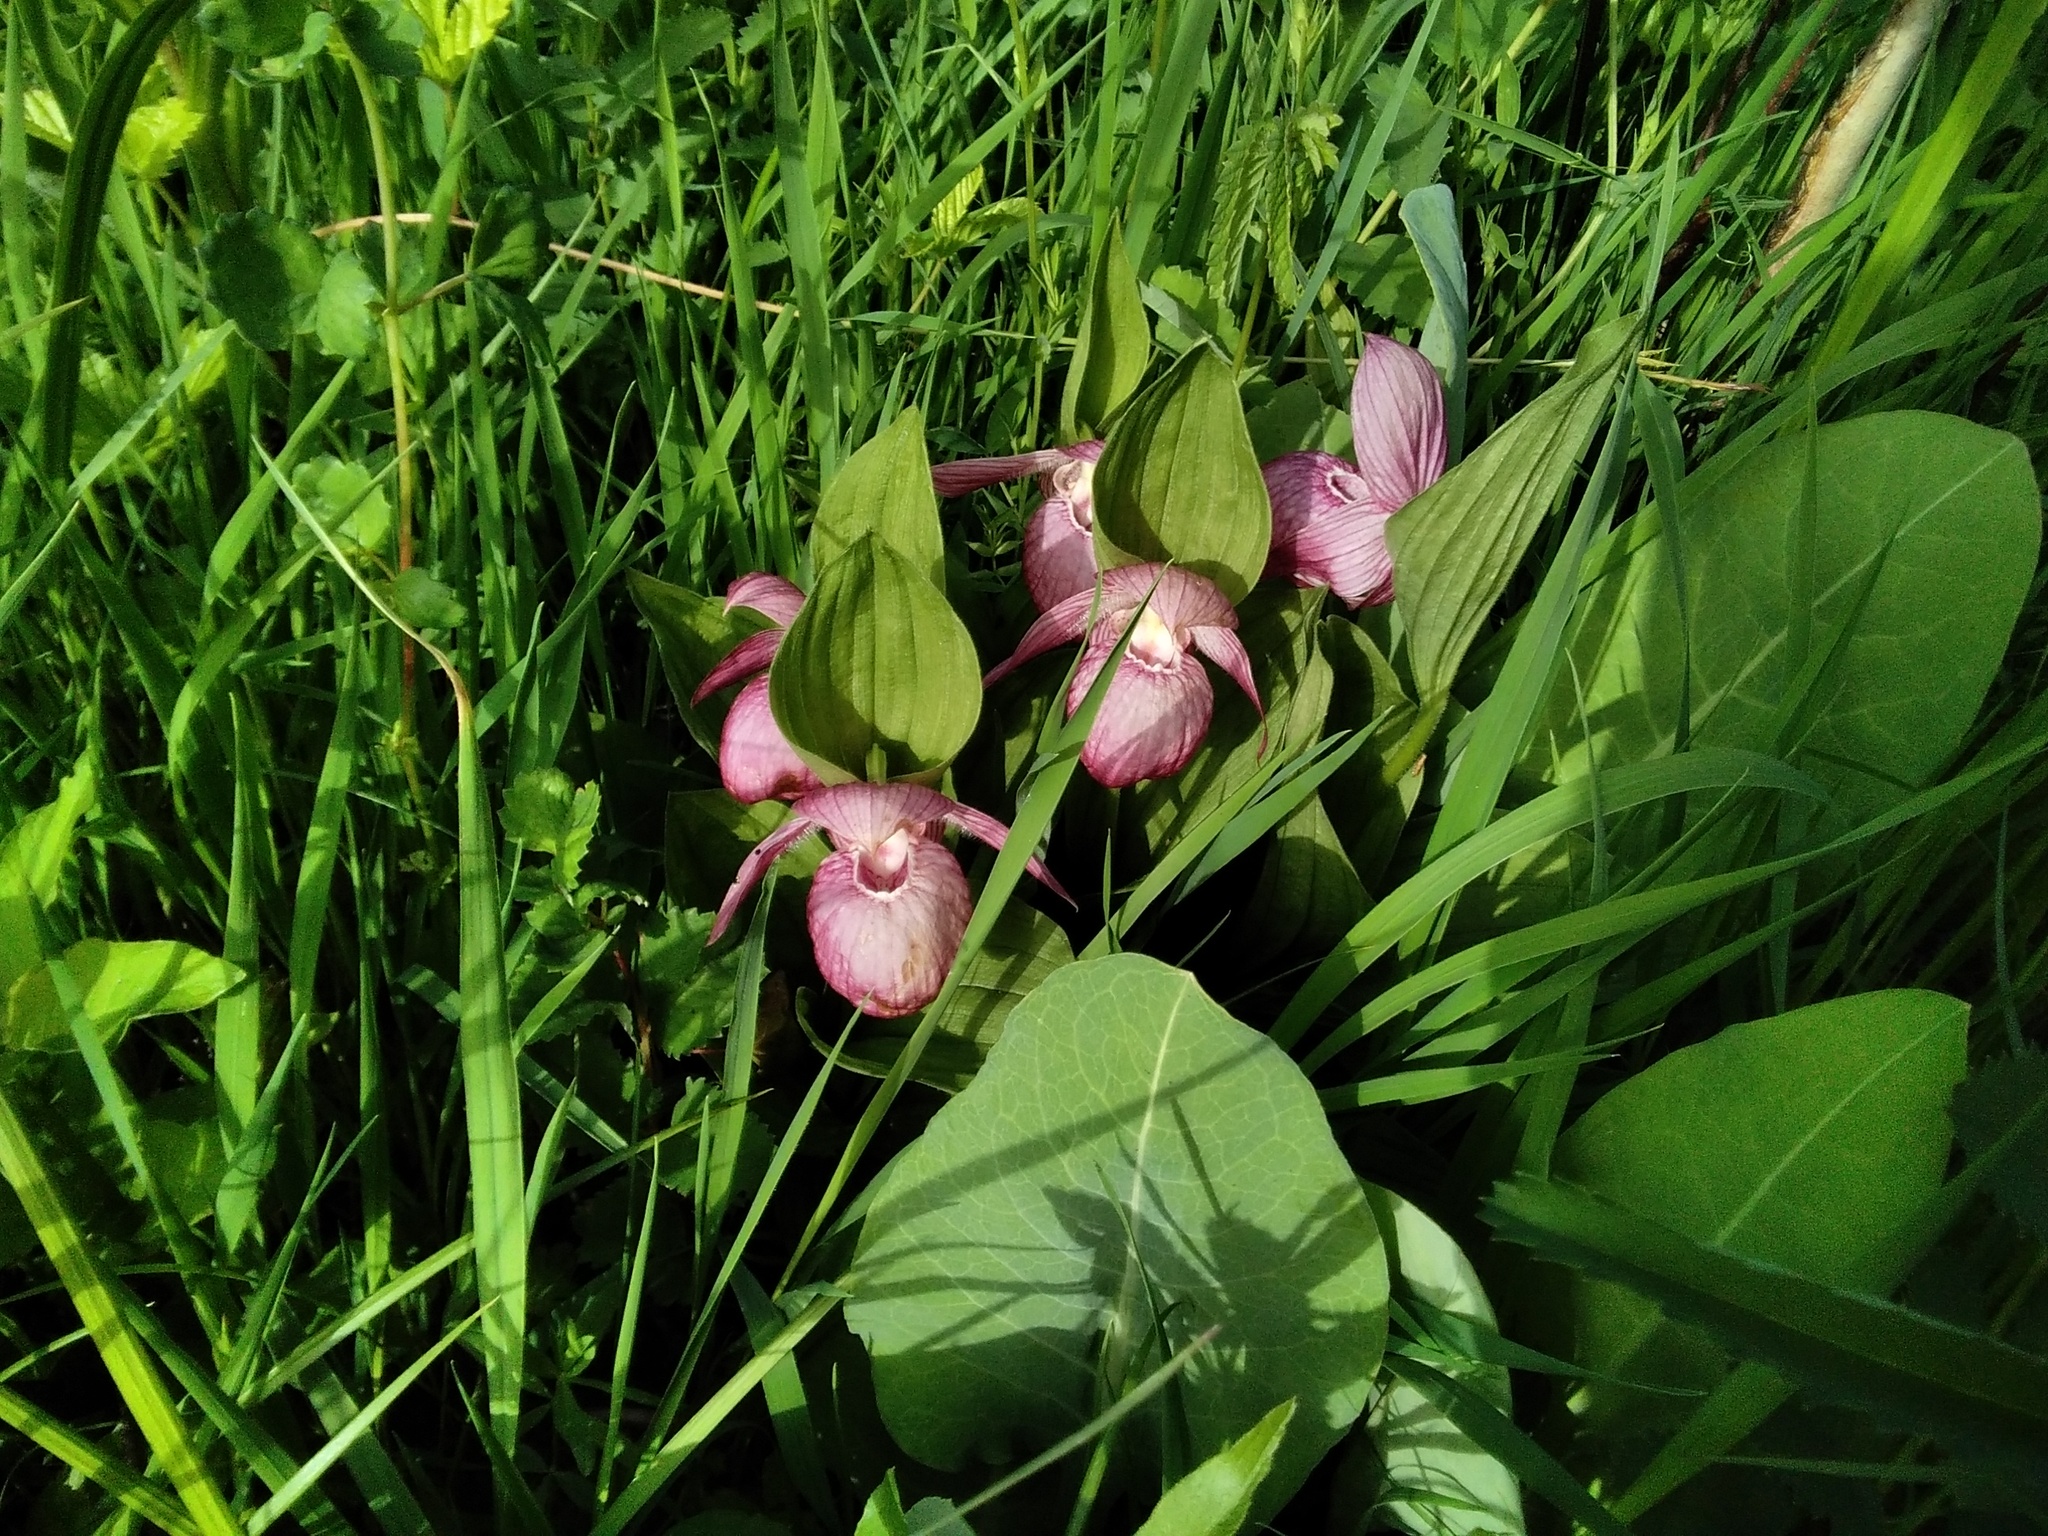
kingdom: Plantae
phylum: Tracheophyta
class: Liliopsida
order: Asparagales
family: Orchidaceae
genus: Cypripedium
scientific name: Cypripedium macranthos
